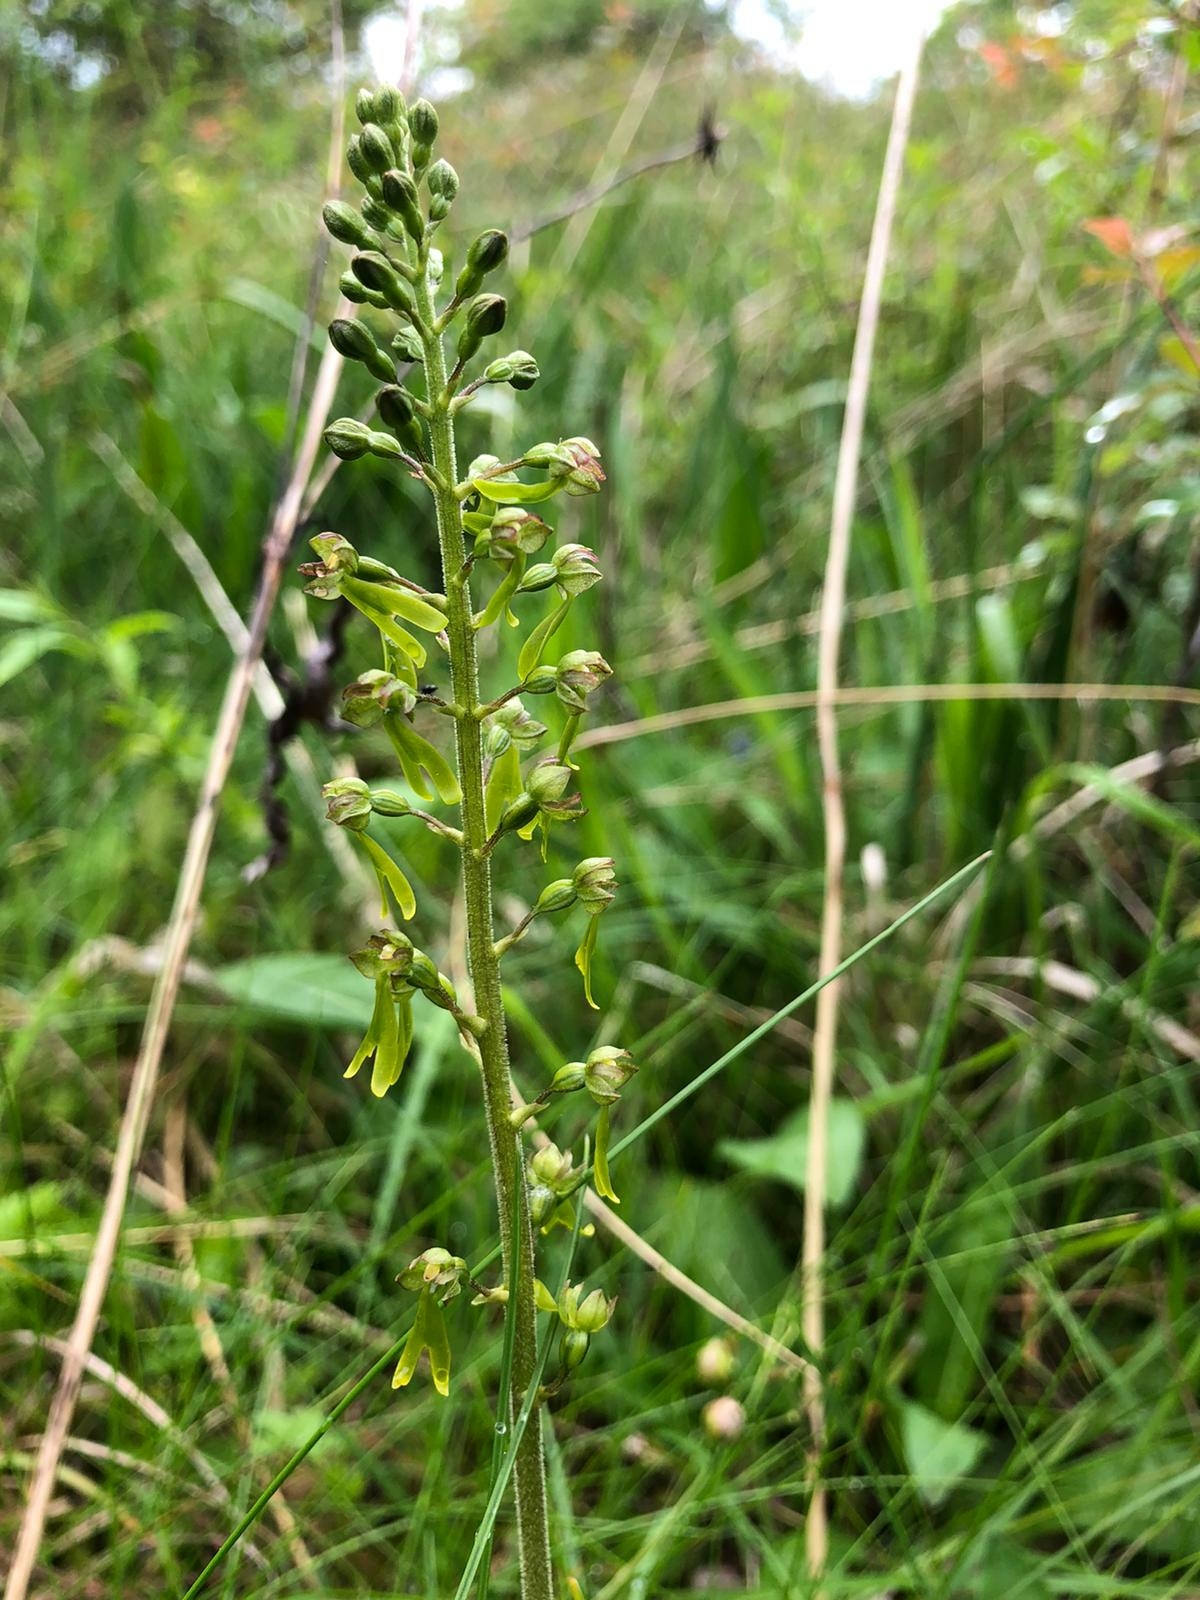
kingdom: Plantae
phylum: Tracheophyta
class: Liliopsida
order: Asparagales
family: Orchidaceae
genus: Neottia
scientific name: Neottia ovata
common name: Common twayblade
